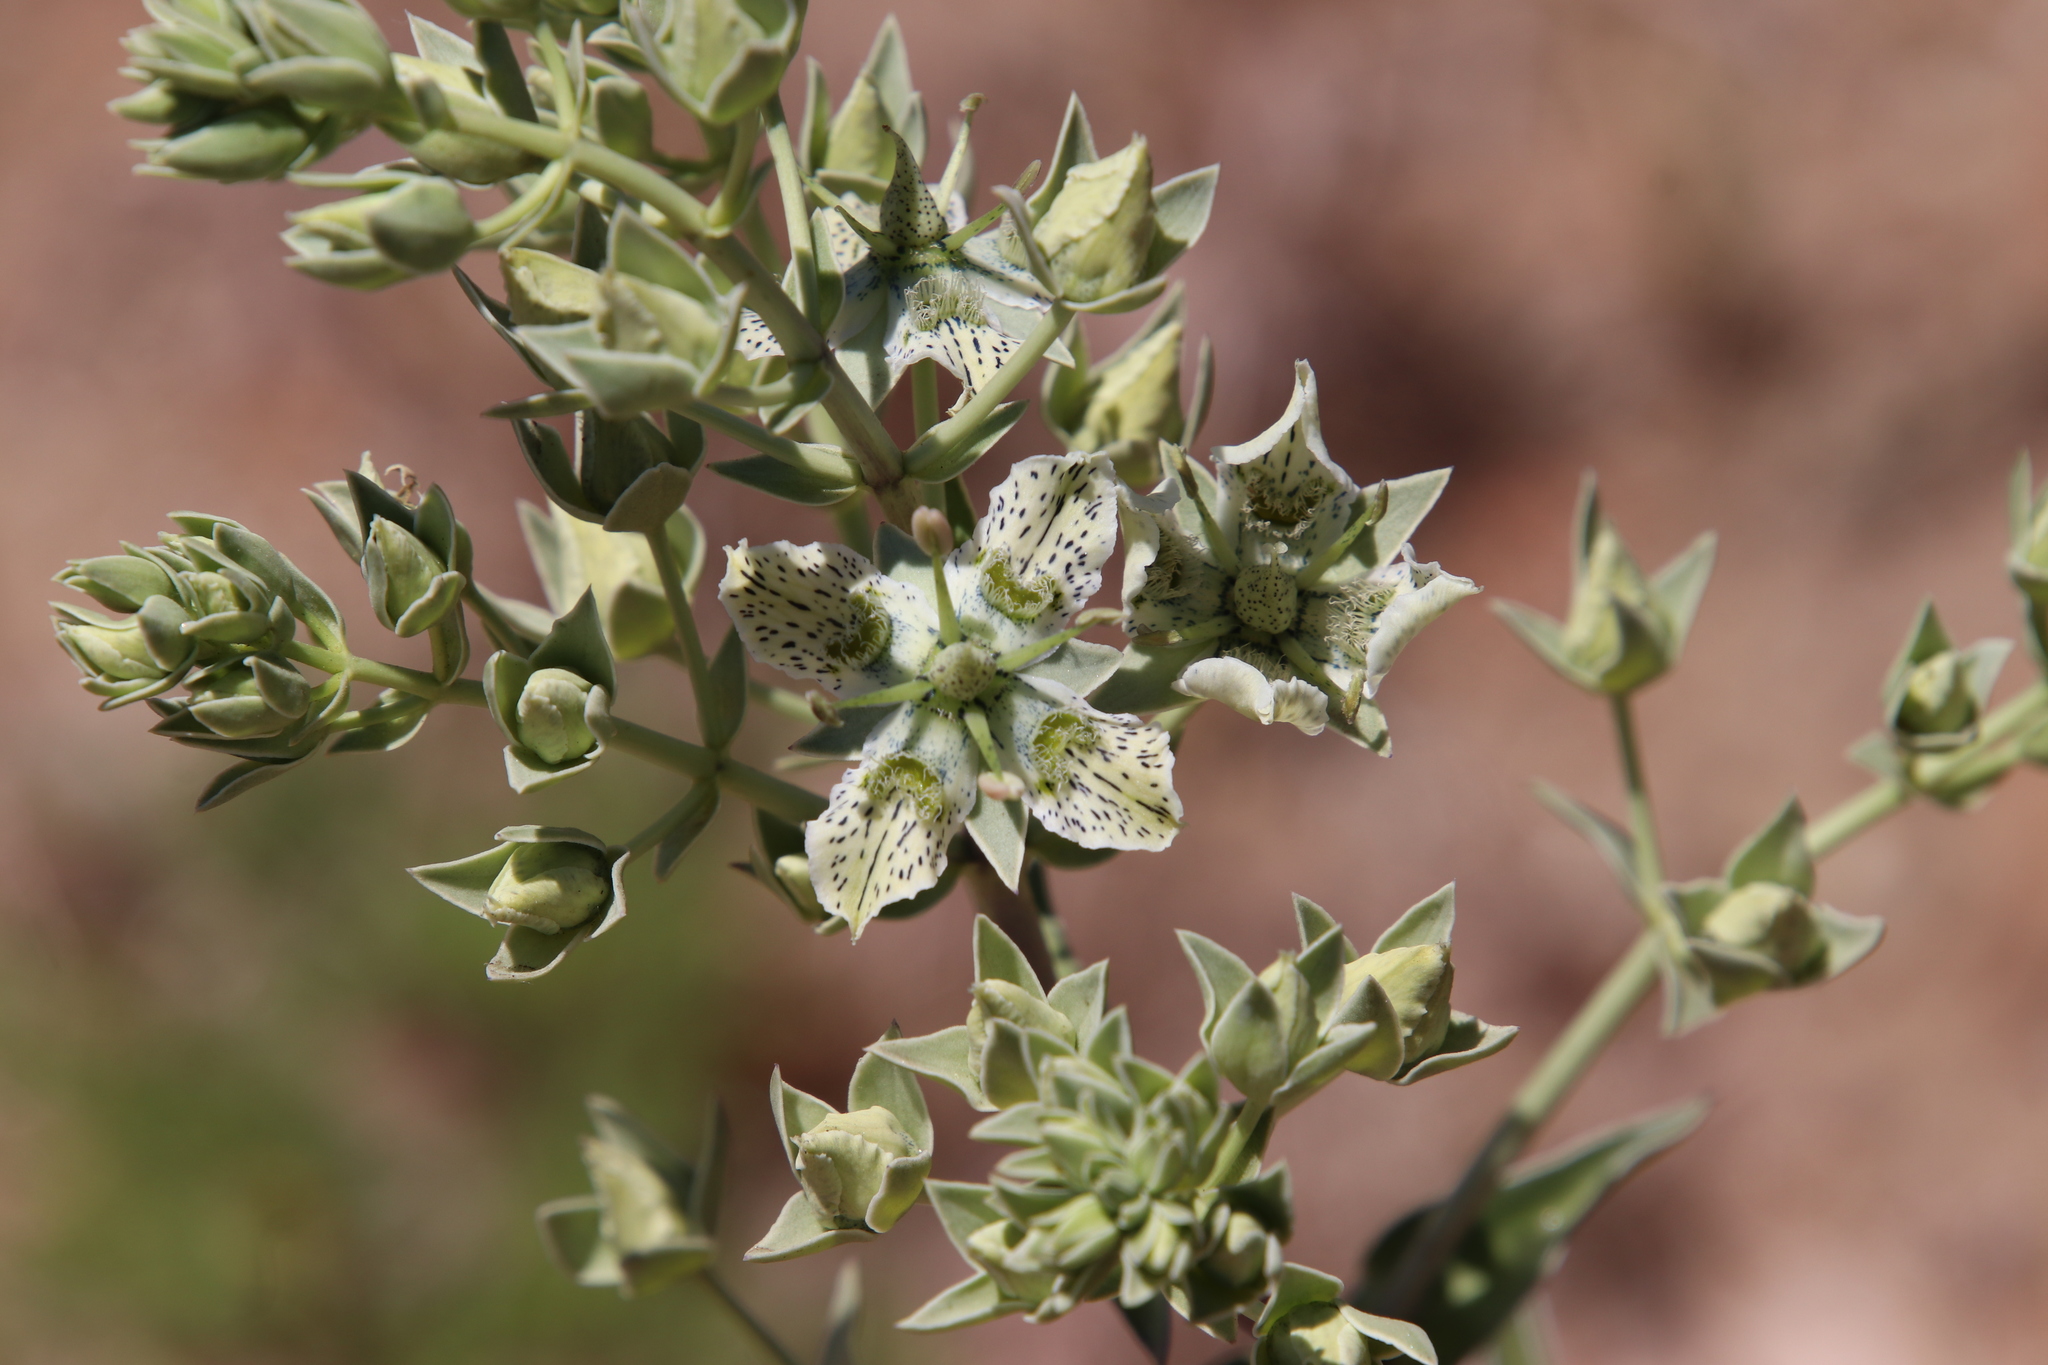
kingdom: Plantae
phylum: Tracheophyta
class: Magnoliopsida
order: Gentianales
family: Gentianaceae
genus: Frasera
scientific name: Frasera parryi
